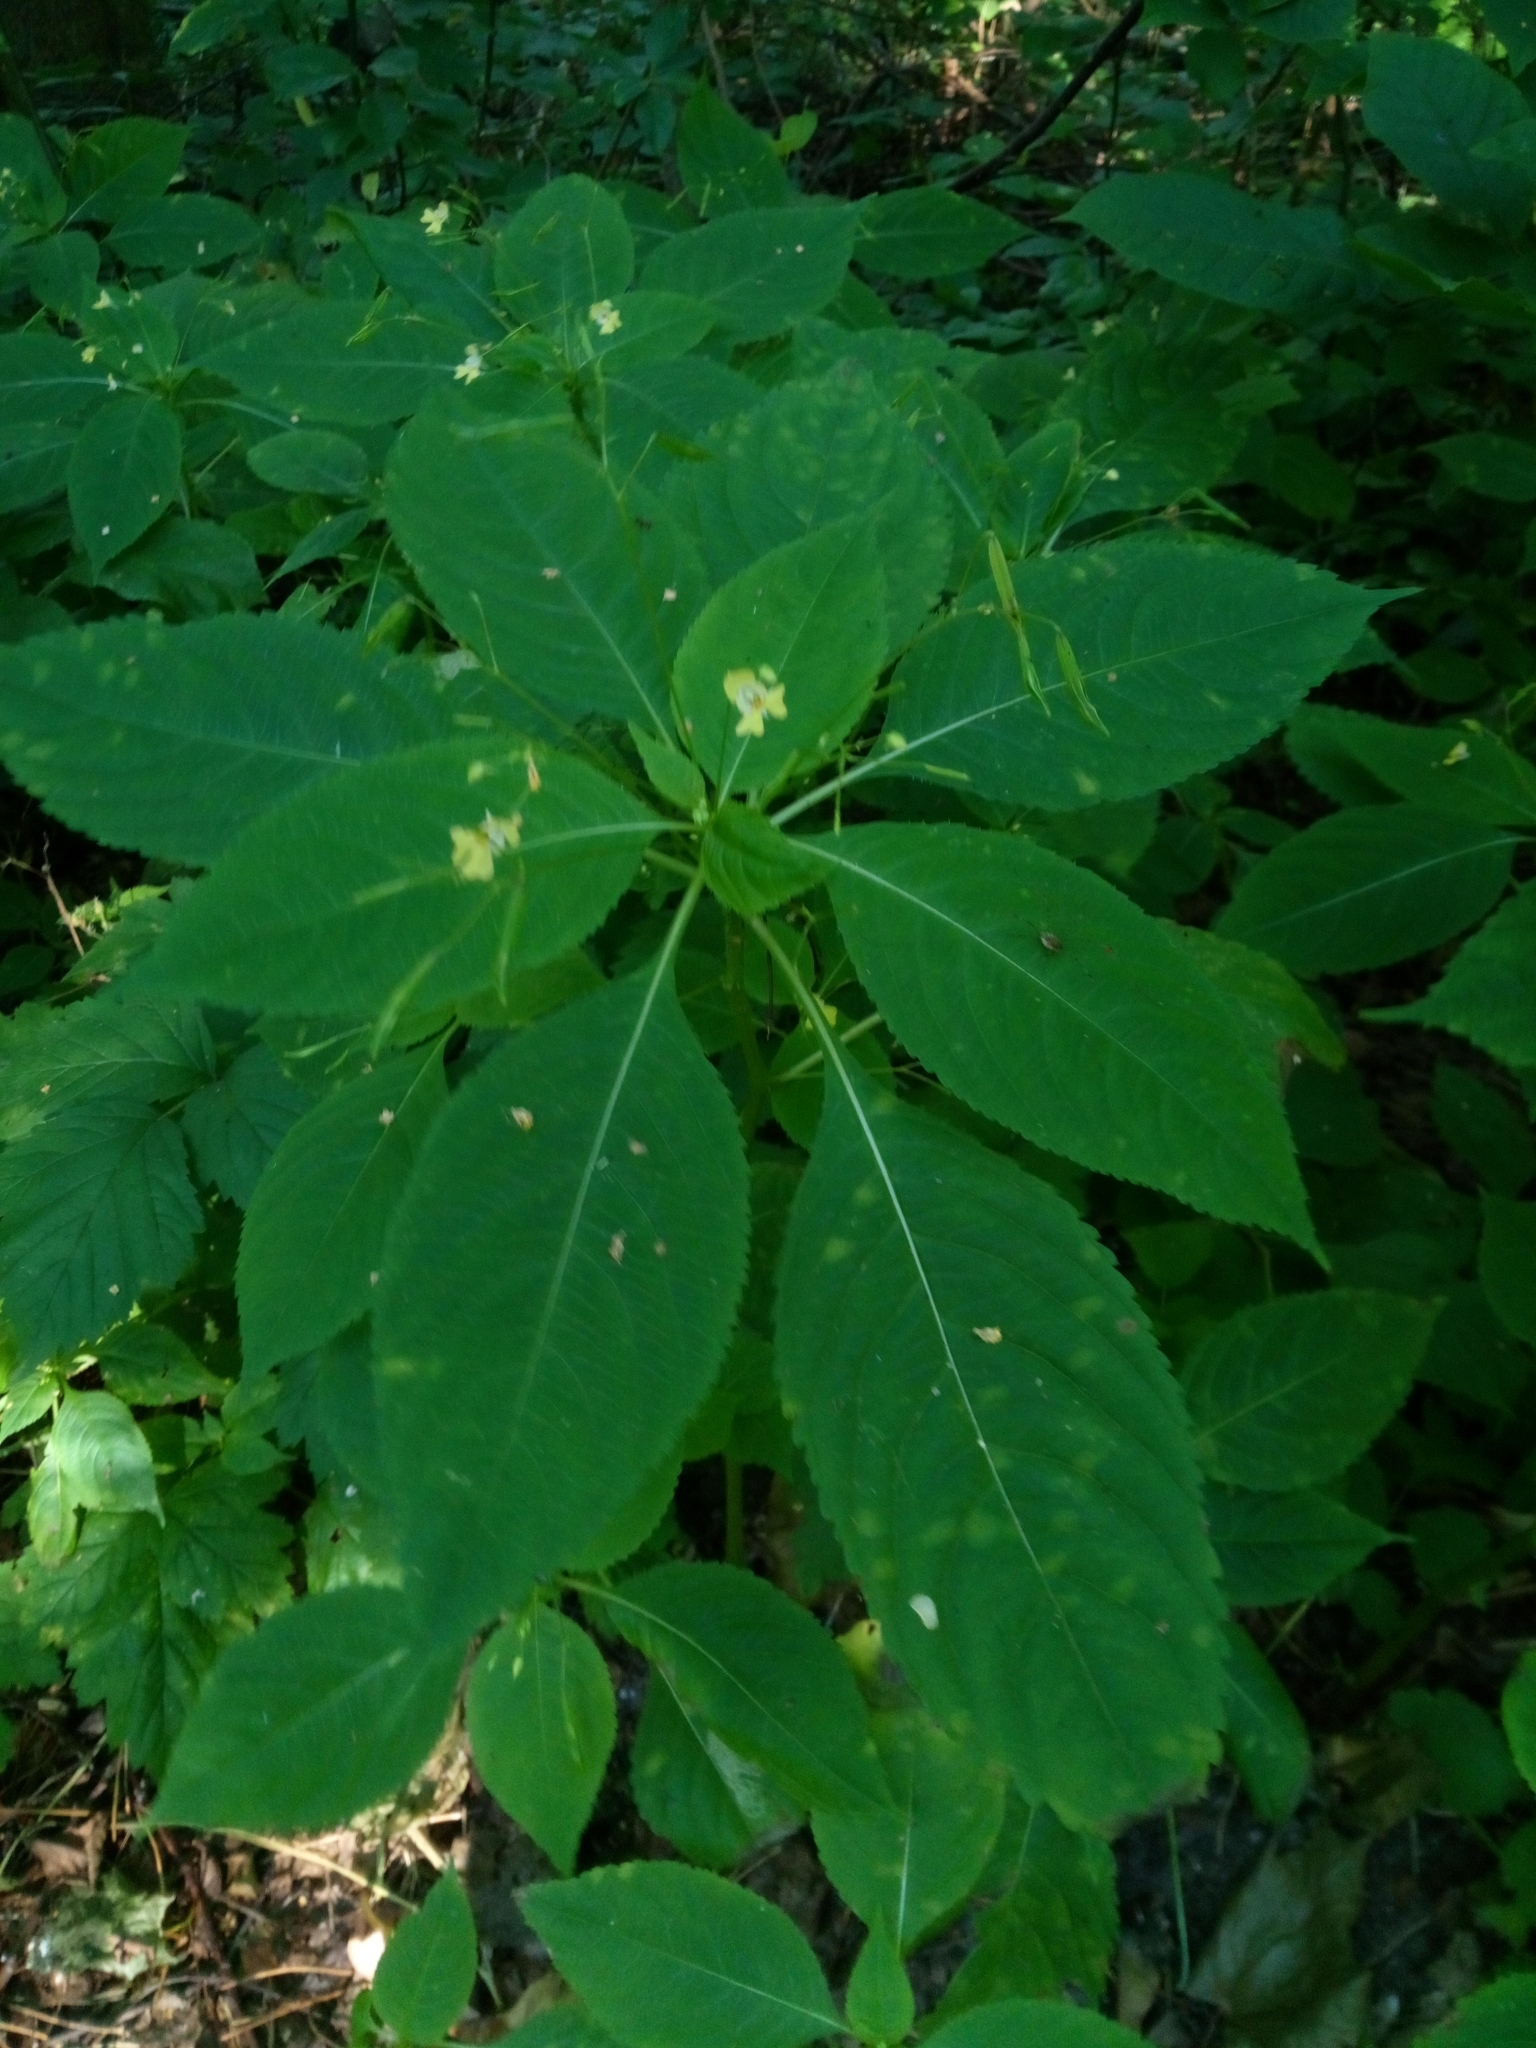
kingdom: Plantae
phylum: Tracheophyta
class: Magnoliopsida
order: Ericales
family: Balsaminaceae
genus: Impatiens
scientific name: Impatiens parviflora
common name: Small balsam
